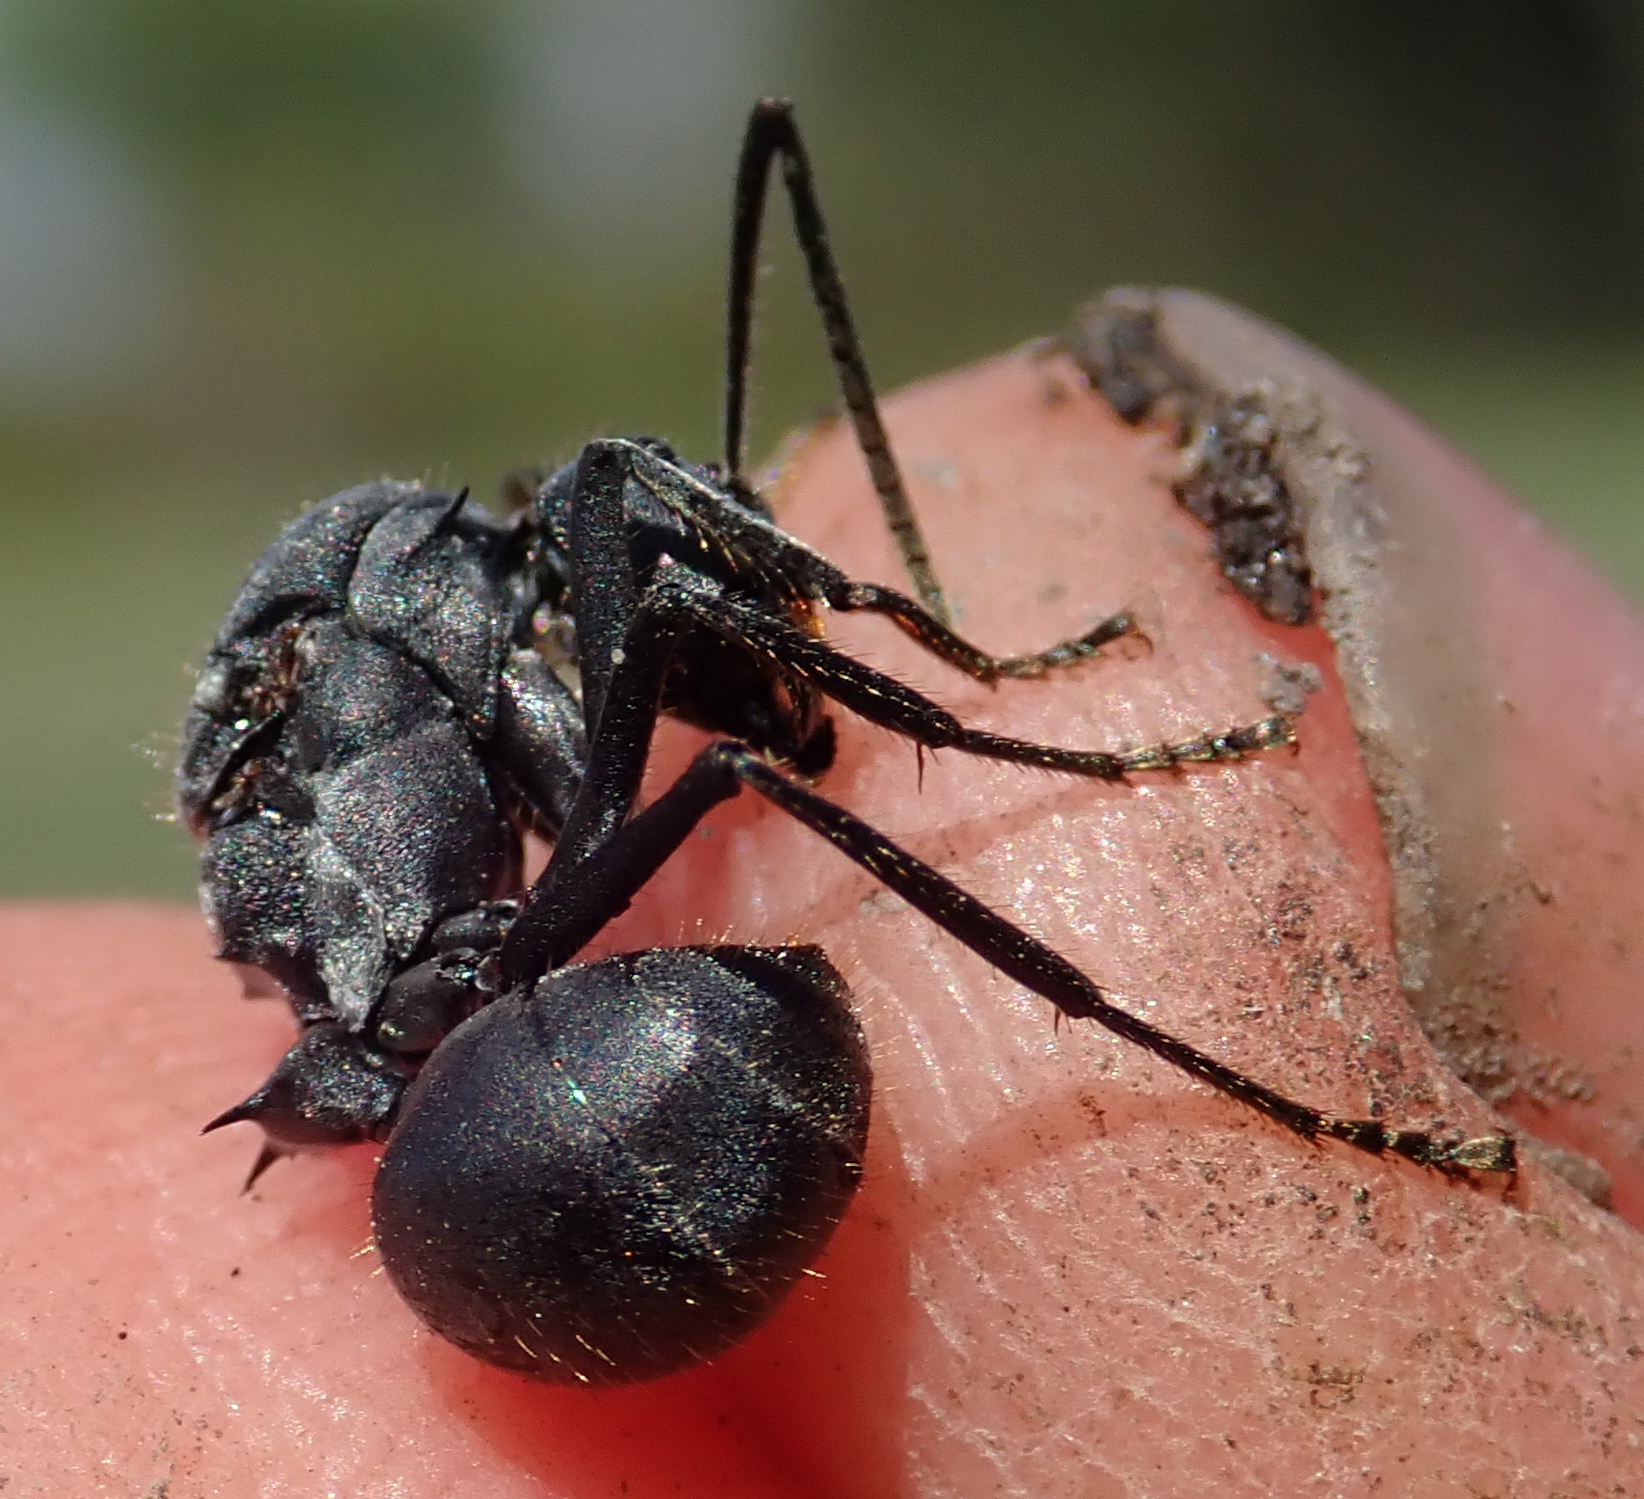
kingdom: Animalia
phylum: Arthropoda
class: Insecta
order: Hymenoptera
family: Formicidae
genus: Polyrhachis
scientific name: Polyrhachis schistacea
